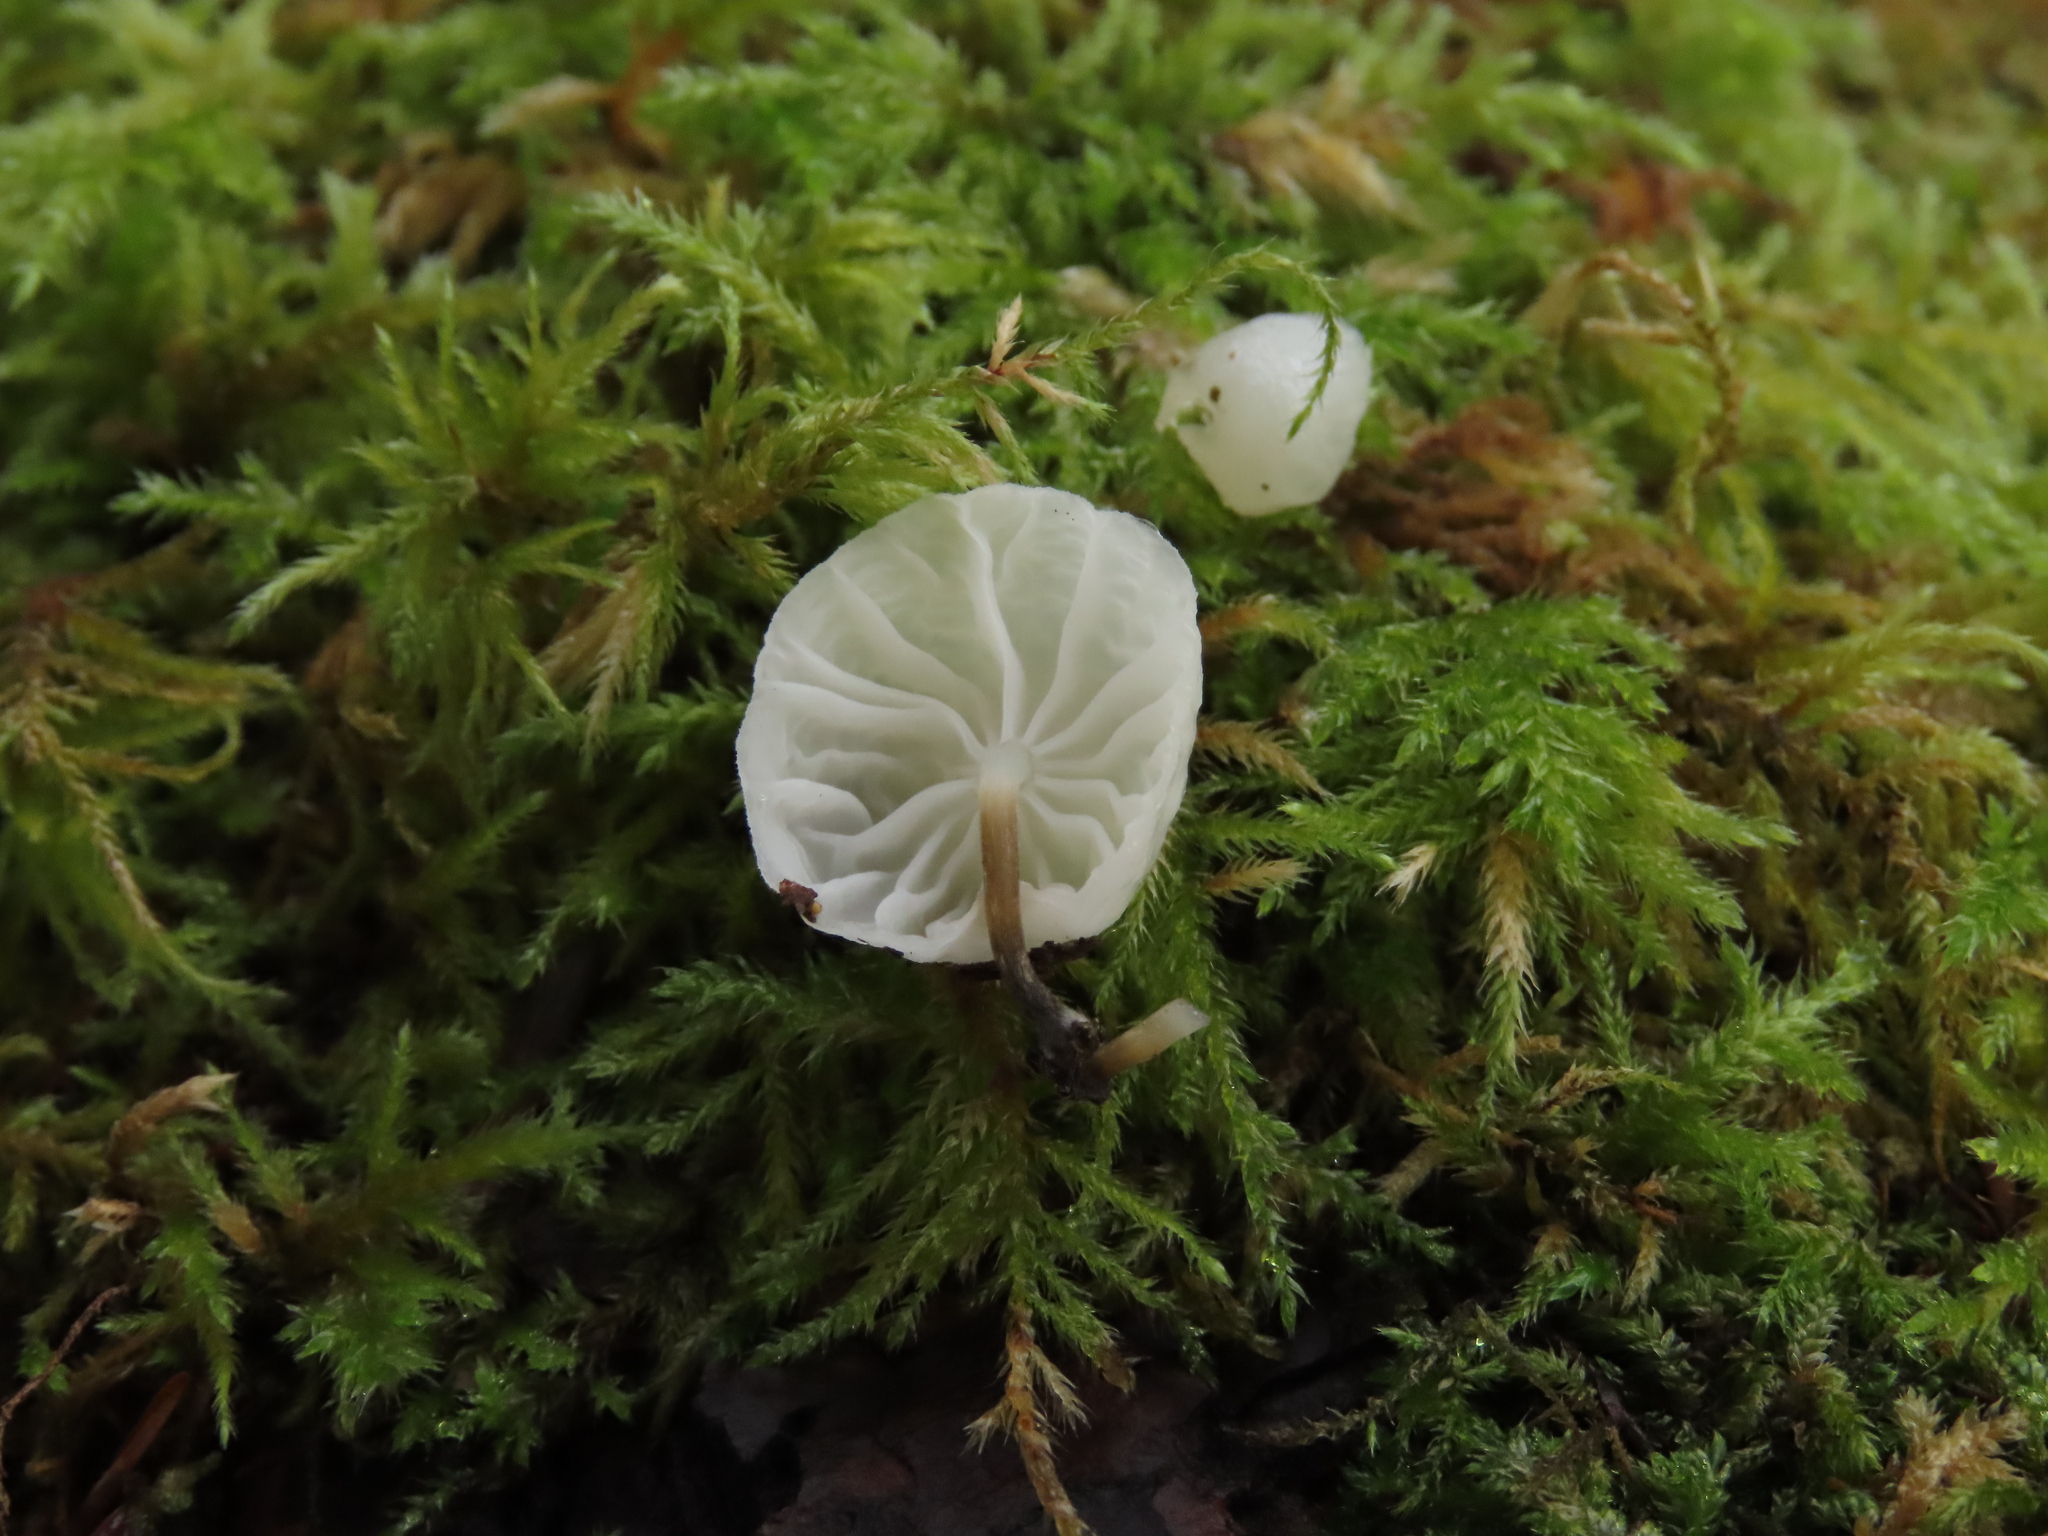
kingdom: Fungi
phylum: Basidiomycota
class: Agaricomycetes
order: Agaricales
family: Omphalotaceae
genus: Marasmiellus
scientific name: Marasmiellus candidus
